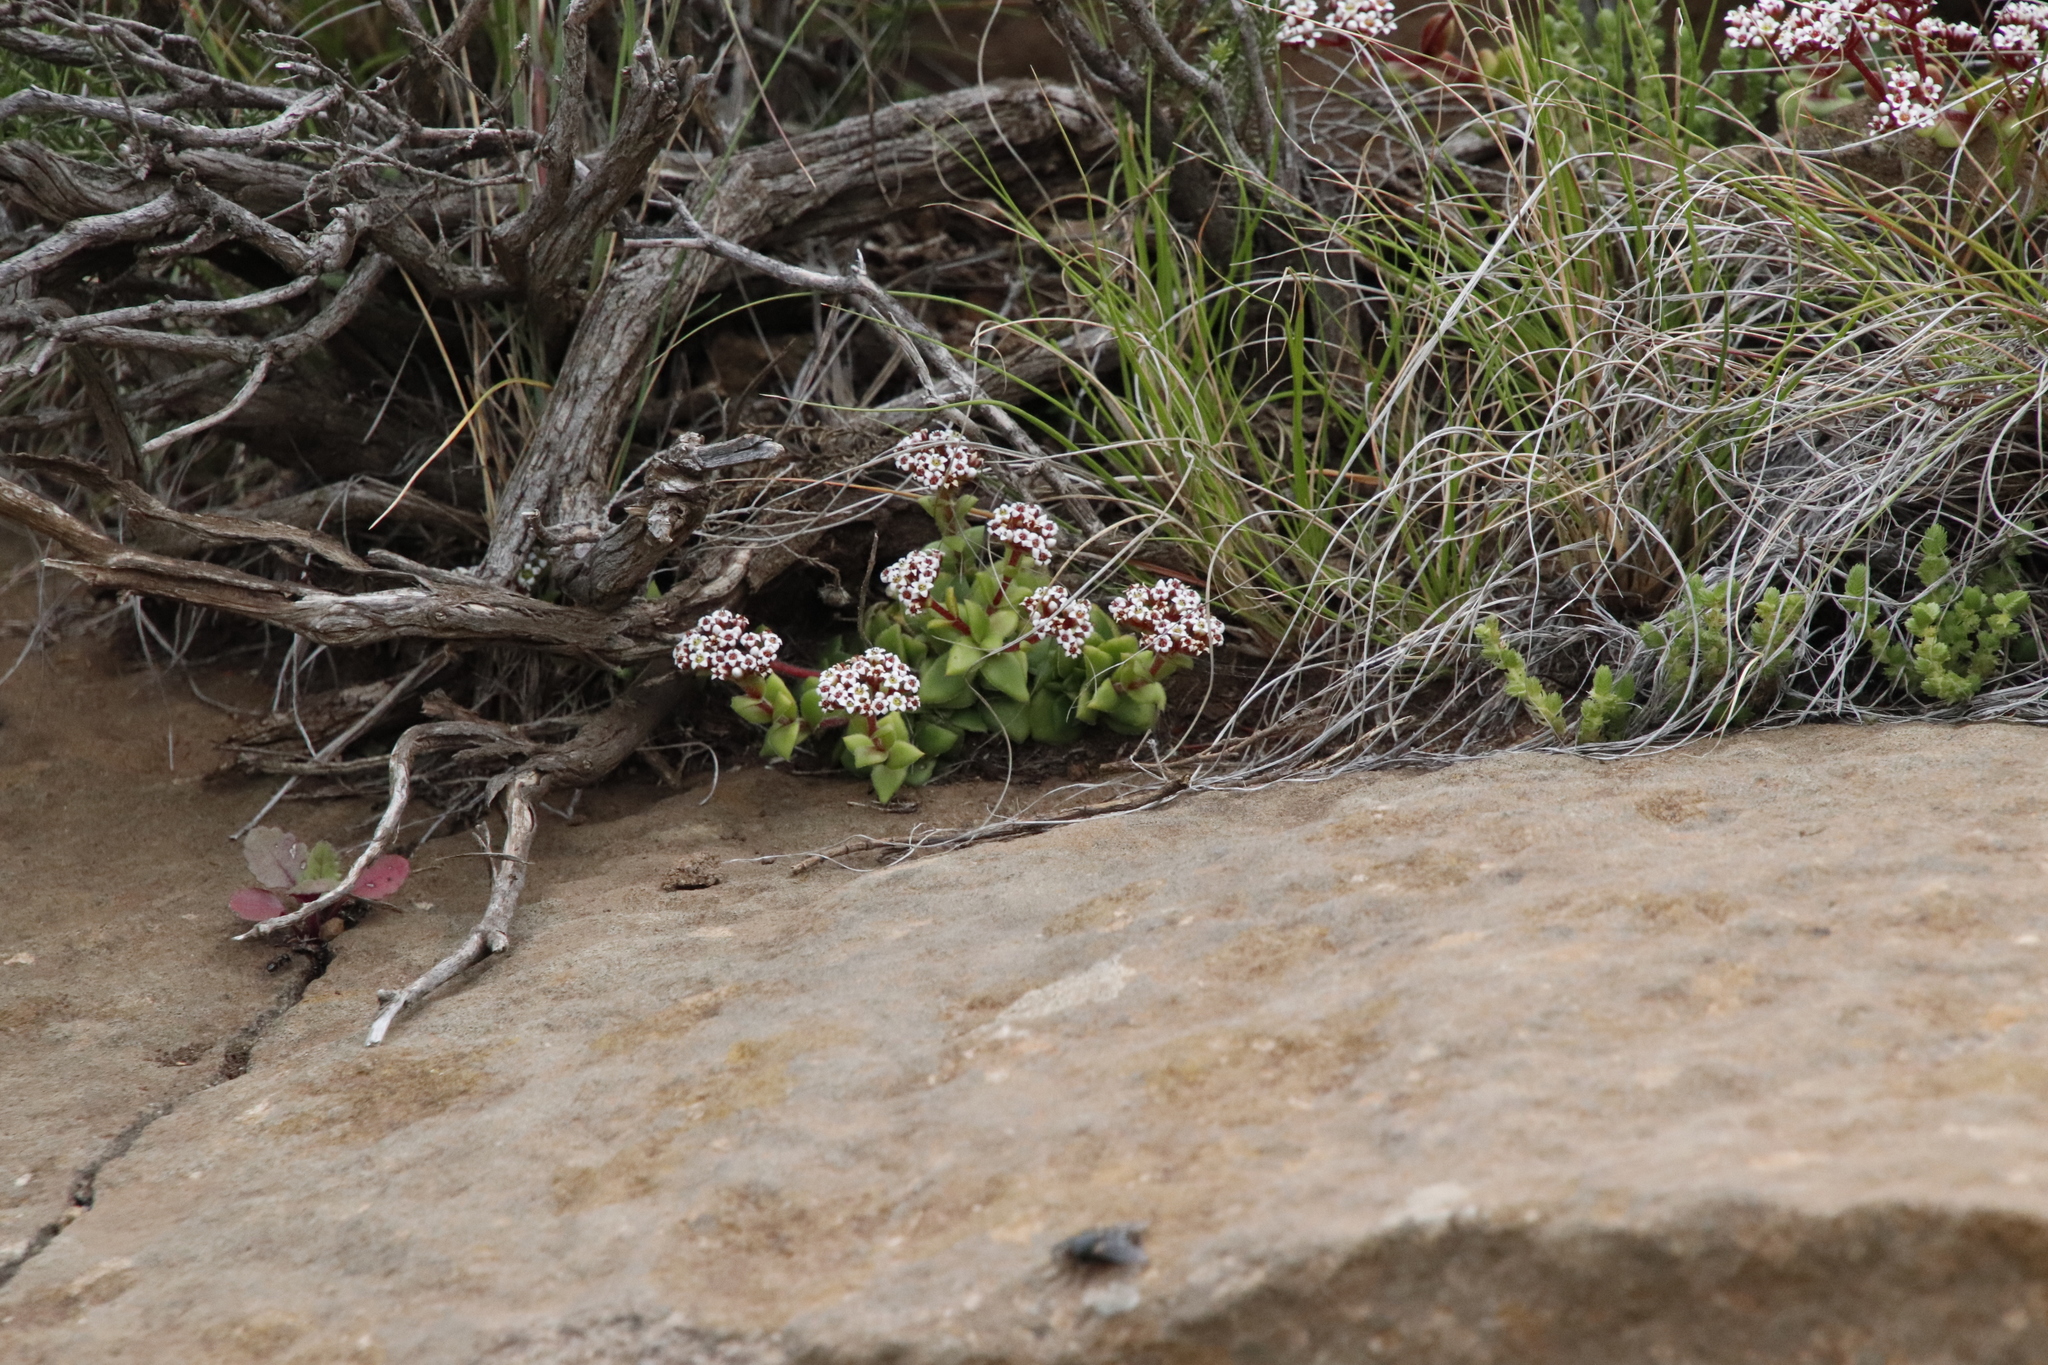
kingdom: Plantae
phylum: Tracheophyta
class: Magnoliopsida
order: Saxifragales
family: Crassulaceae
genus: Crassula
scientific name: Crassula setulosa
